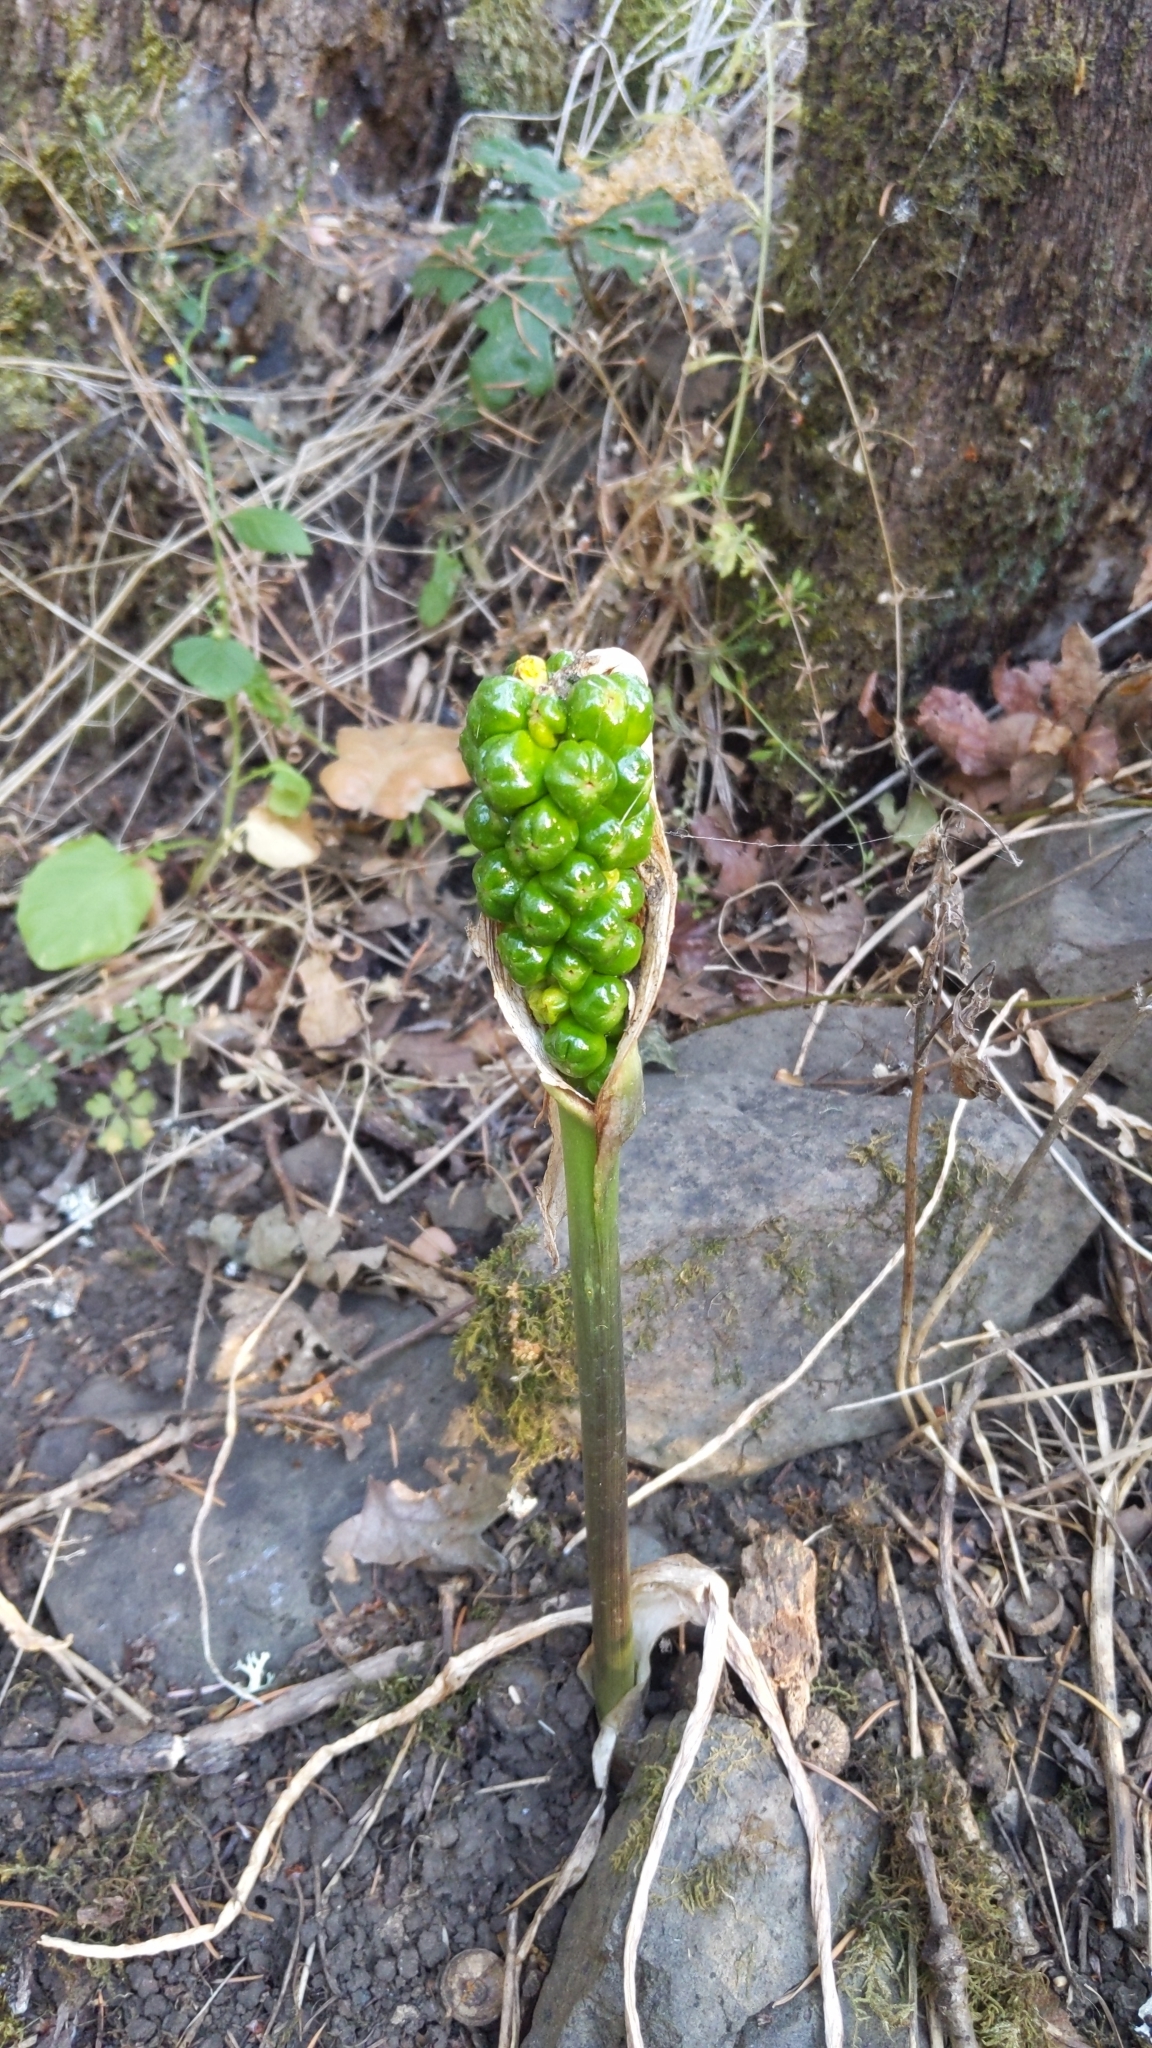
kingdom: Plantae
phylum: Tracheophyta
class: Liliopsida
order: Alismatales
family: Araceae
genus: Arum
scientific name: Arum italicum
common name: Italian lords-and-ladies
